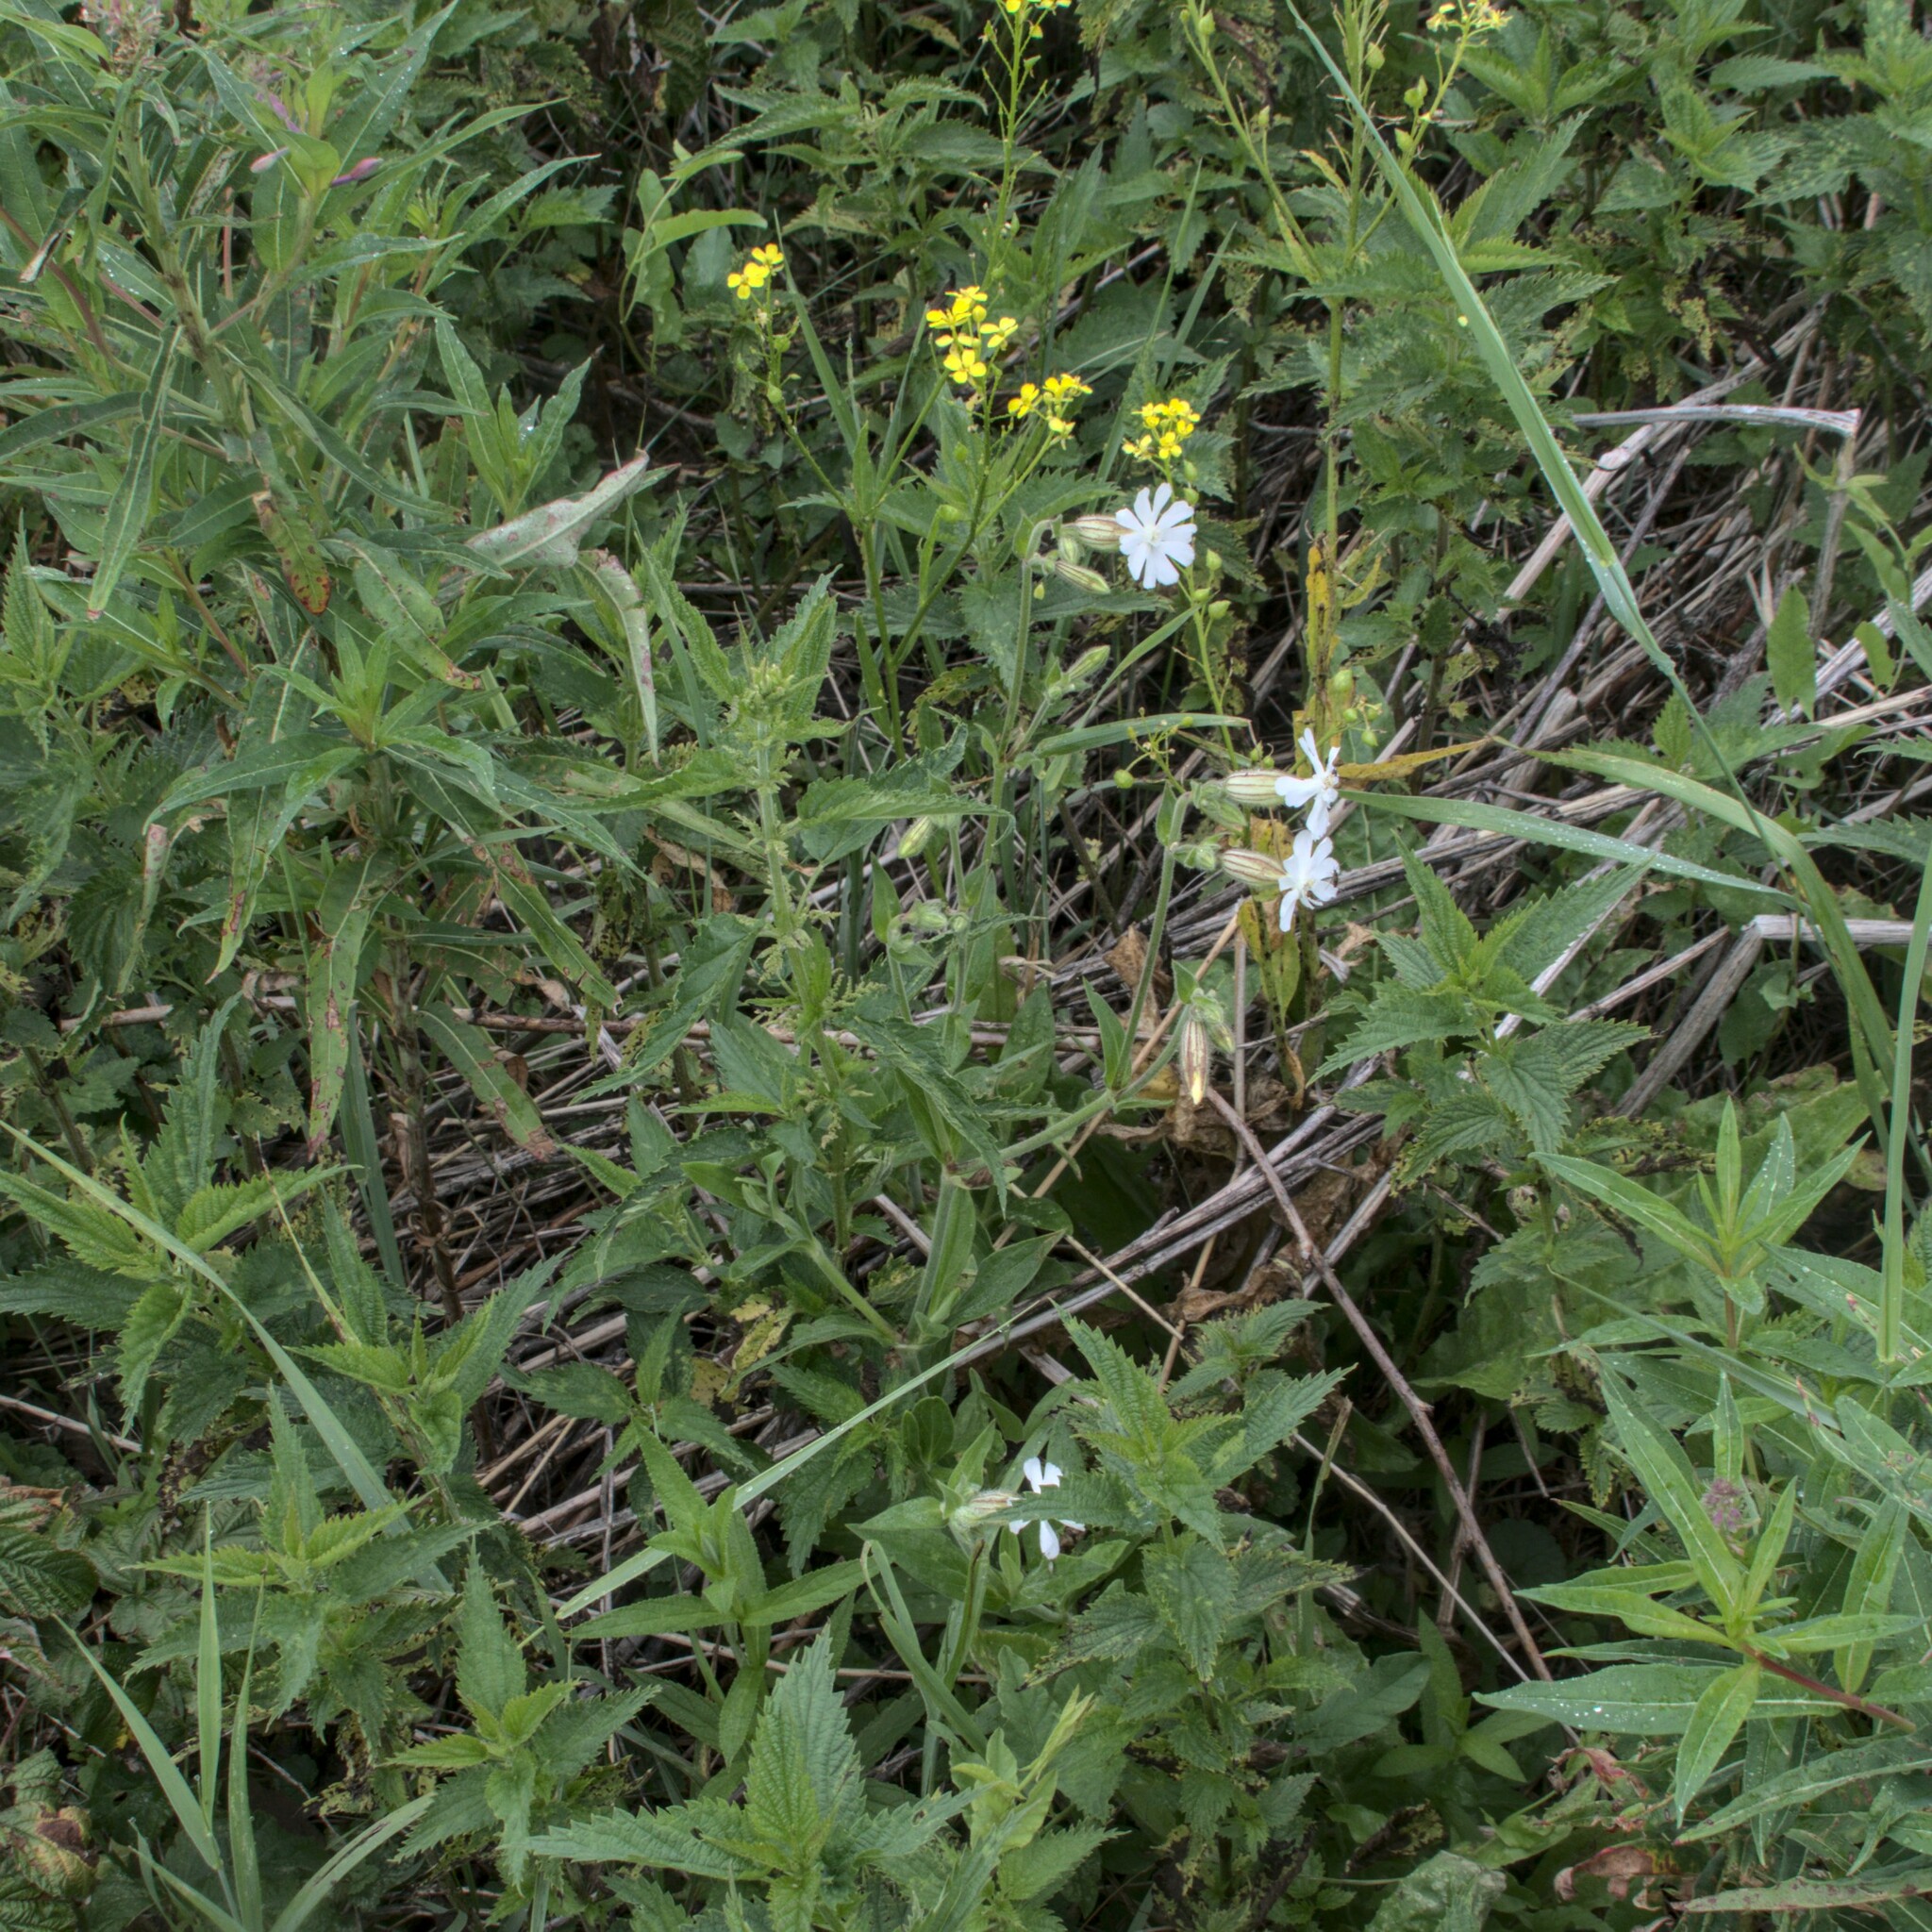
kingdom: Plantae
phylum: Tracheophyta
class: Magnoliopsida
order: Caryophyllales
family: Caryophyllaceae
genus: Silene
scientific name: Silene latifolia
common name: White campion
